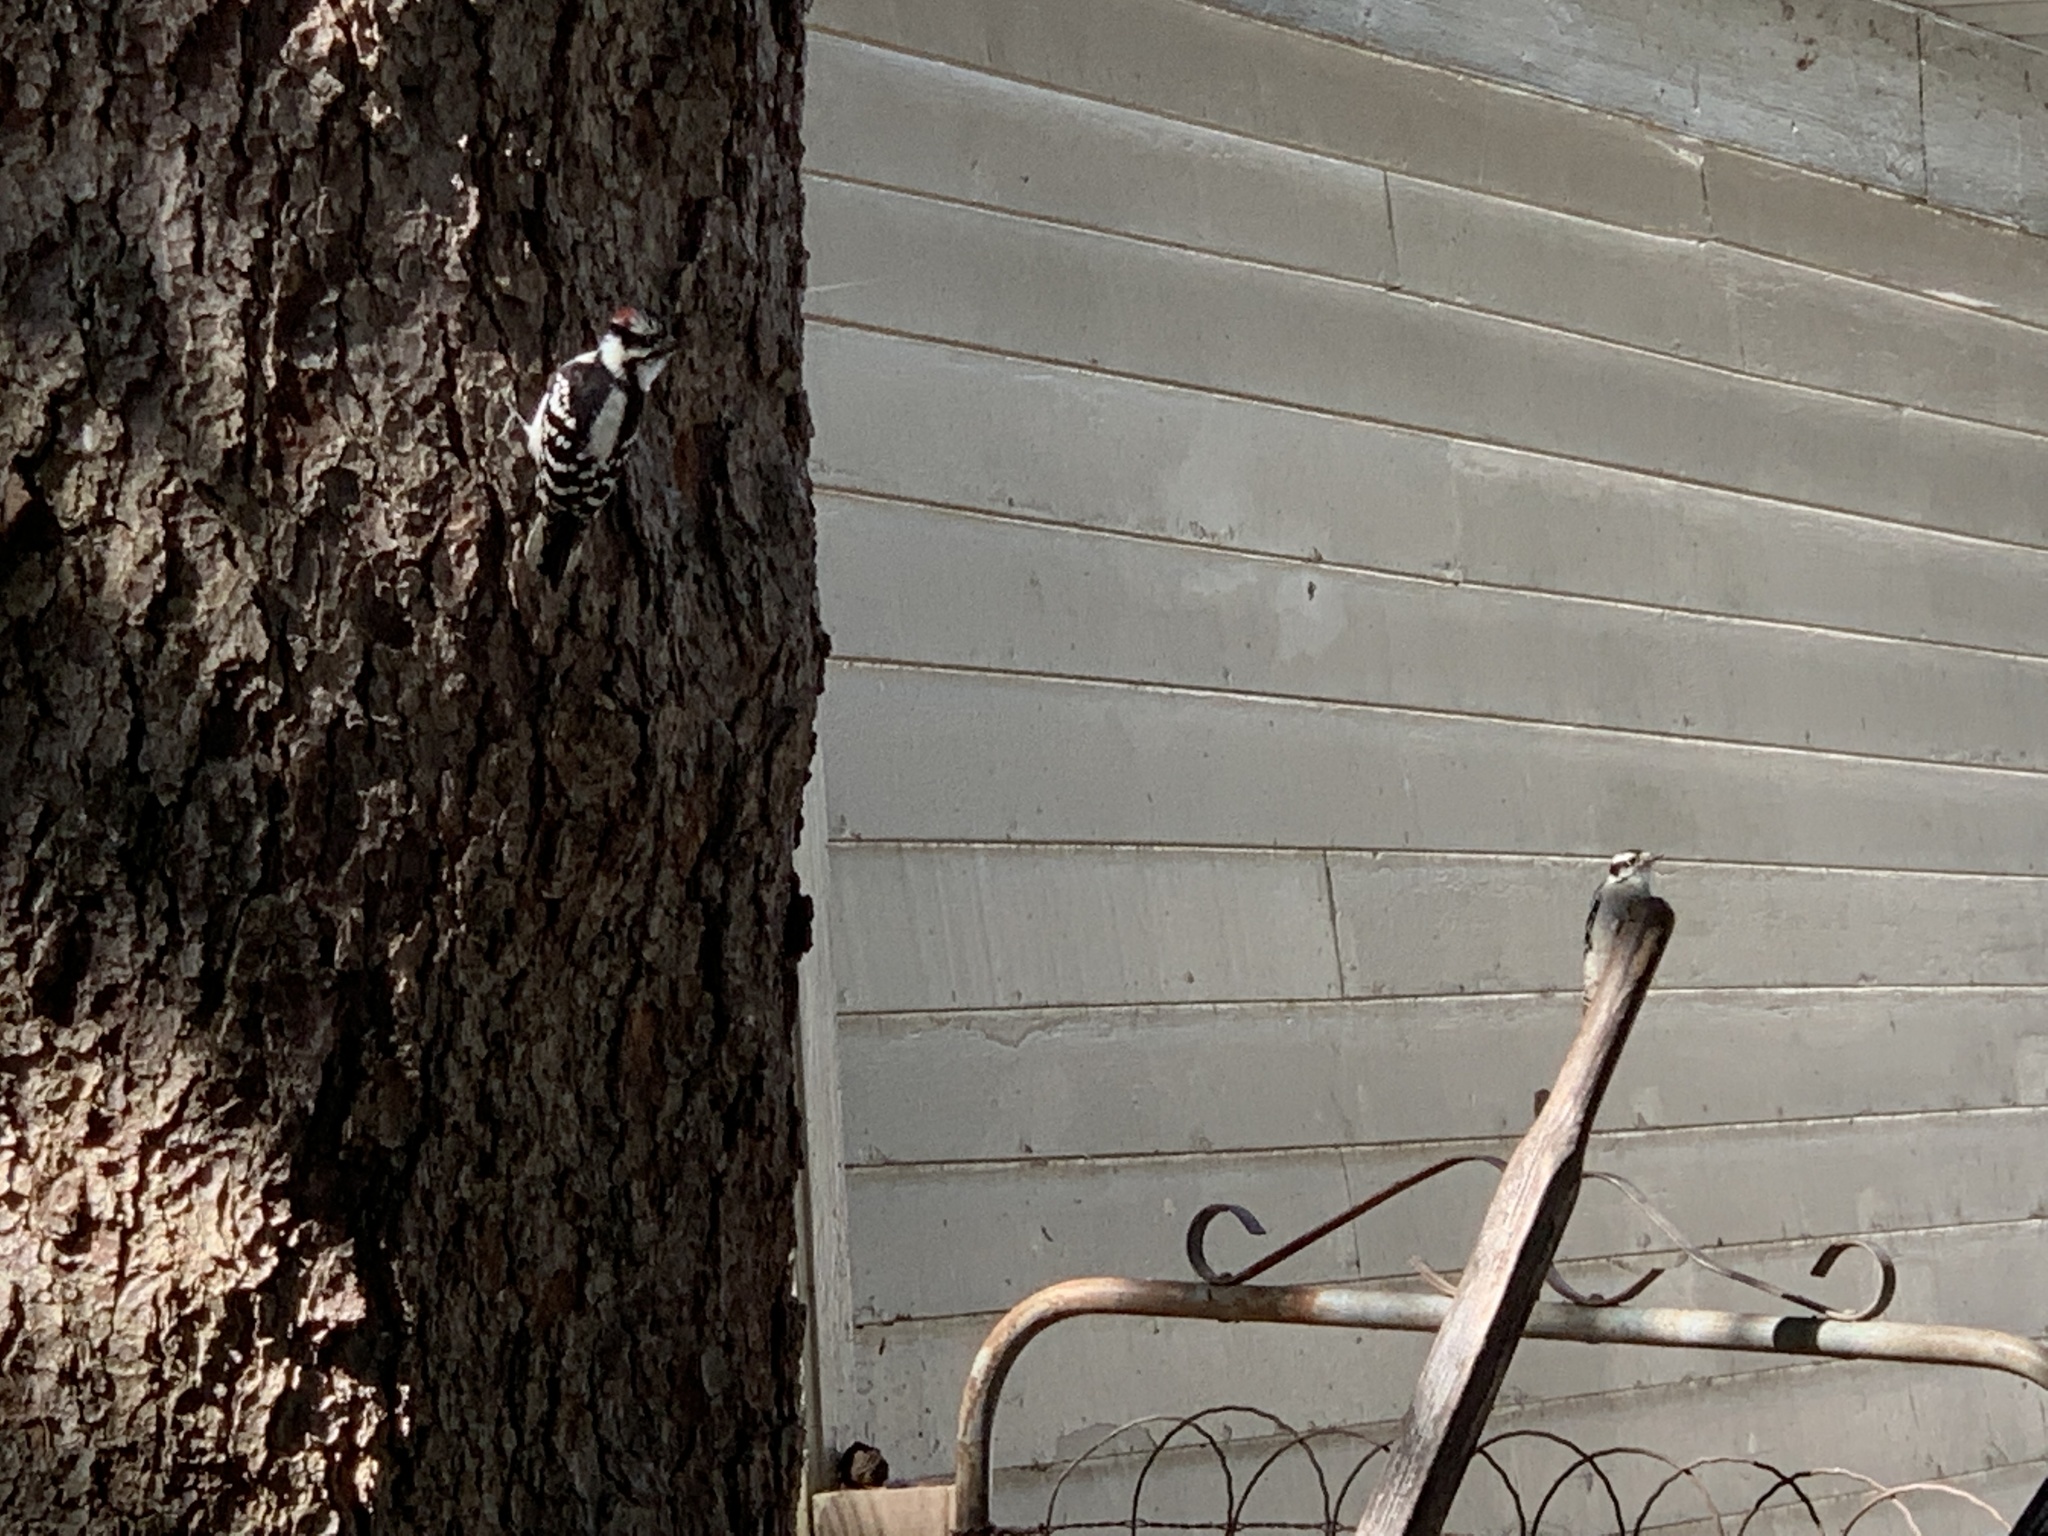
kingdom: Animalia
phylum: Chordata
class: Aves
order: Piciformes
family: Picidae
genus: Dryobates
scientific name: Dryobates pubescens
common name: Downy woodpecker
